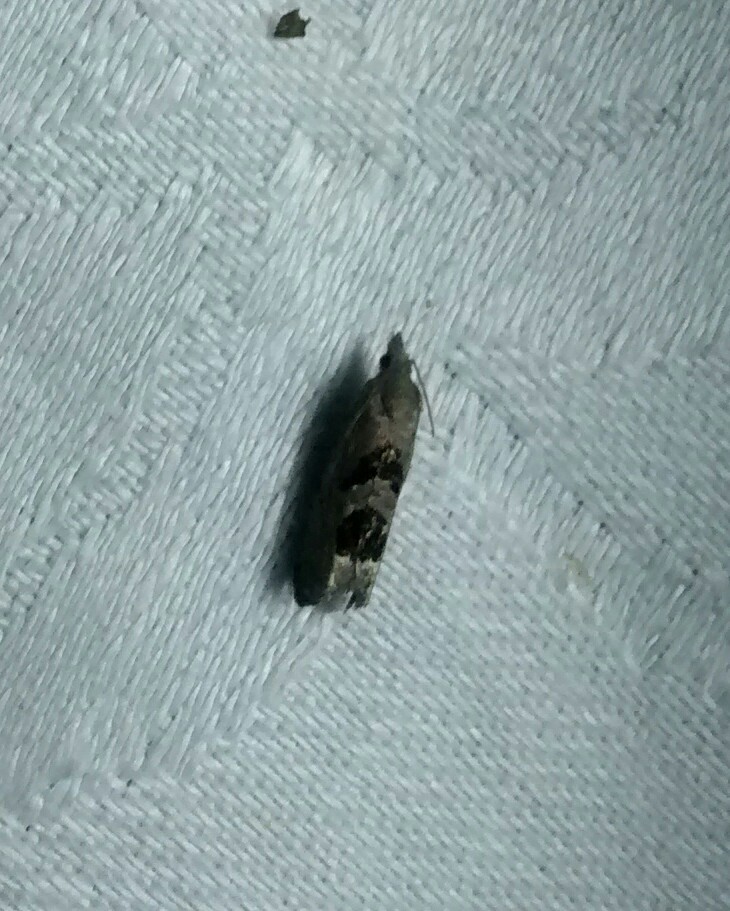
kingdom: Animalia
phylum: Arthropoda
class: Insecta
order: Lepidoptera
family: Tortricidae
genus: Eucosma
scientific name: Eucosma tomonana
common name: Aster-head eucosma moth
